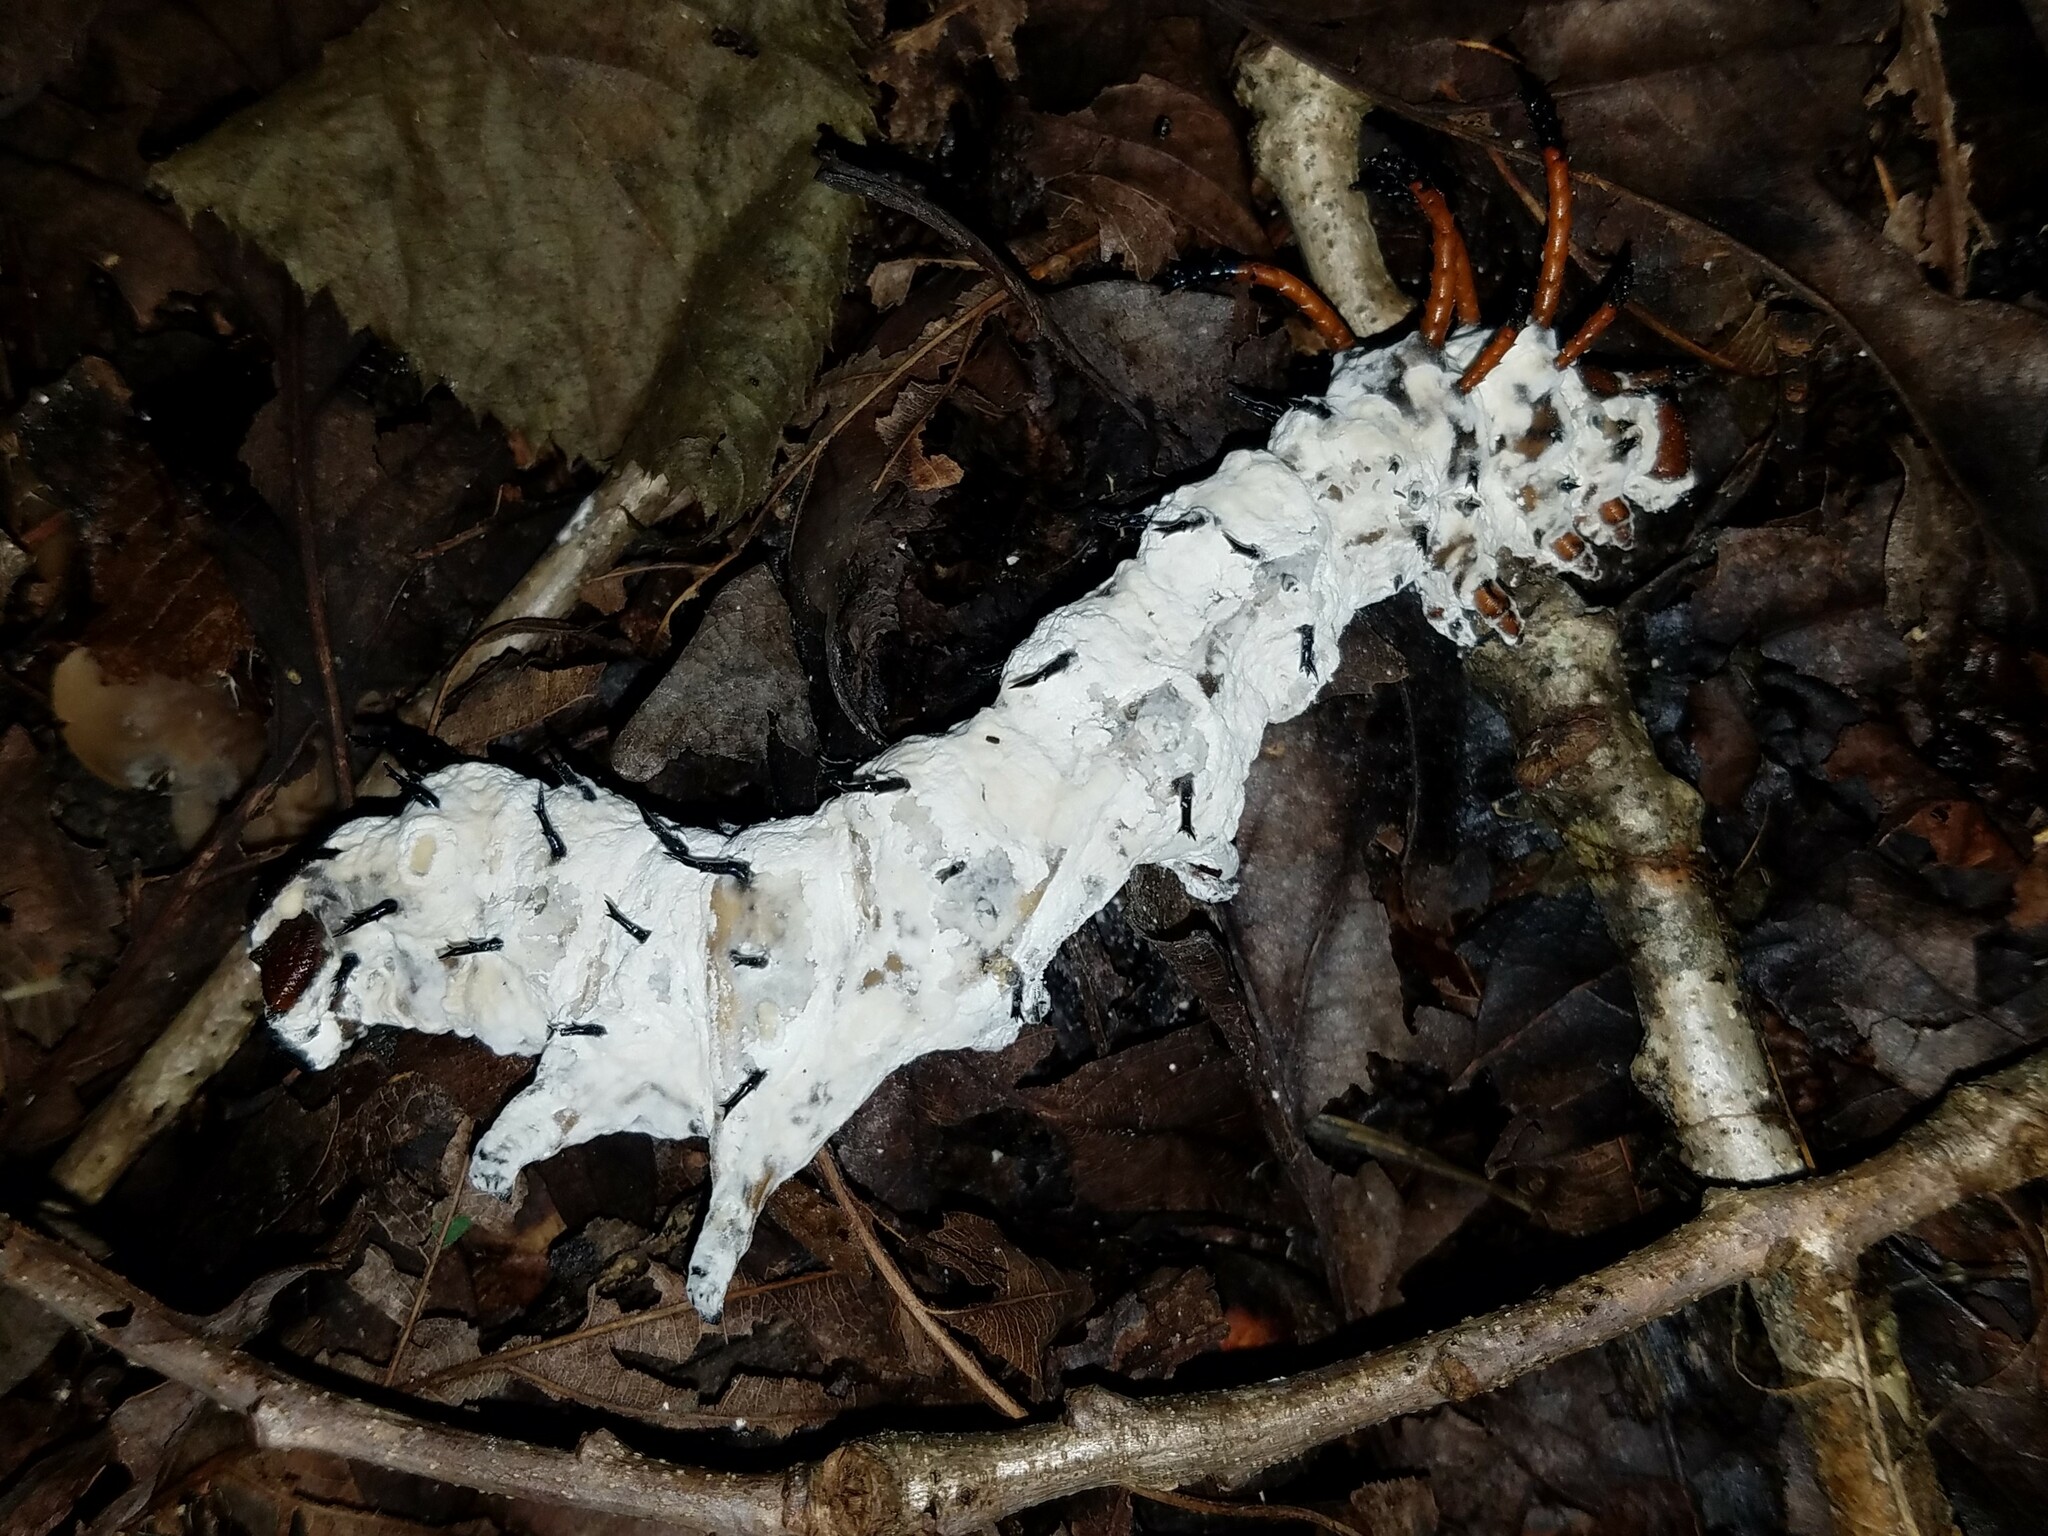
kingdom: Animalia
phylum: Arthropoda
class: Insecta
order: Lepidoptera
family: Saturniidae
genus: Citheronia
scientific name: Citheronia regalis
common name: Hickory horned devil
